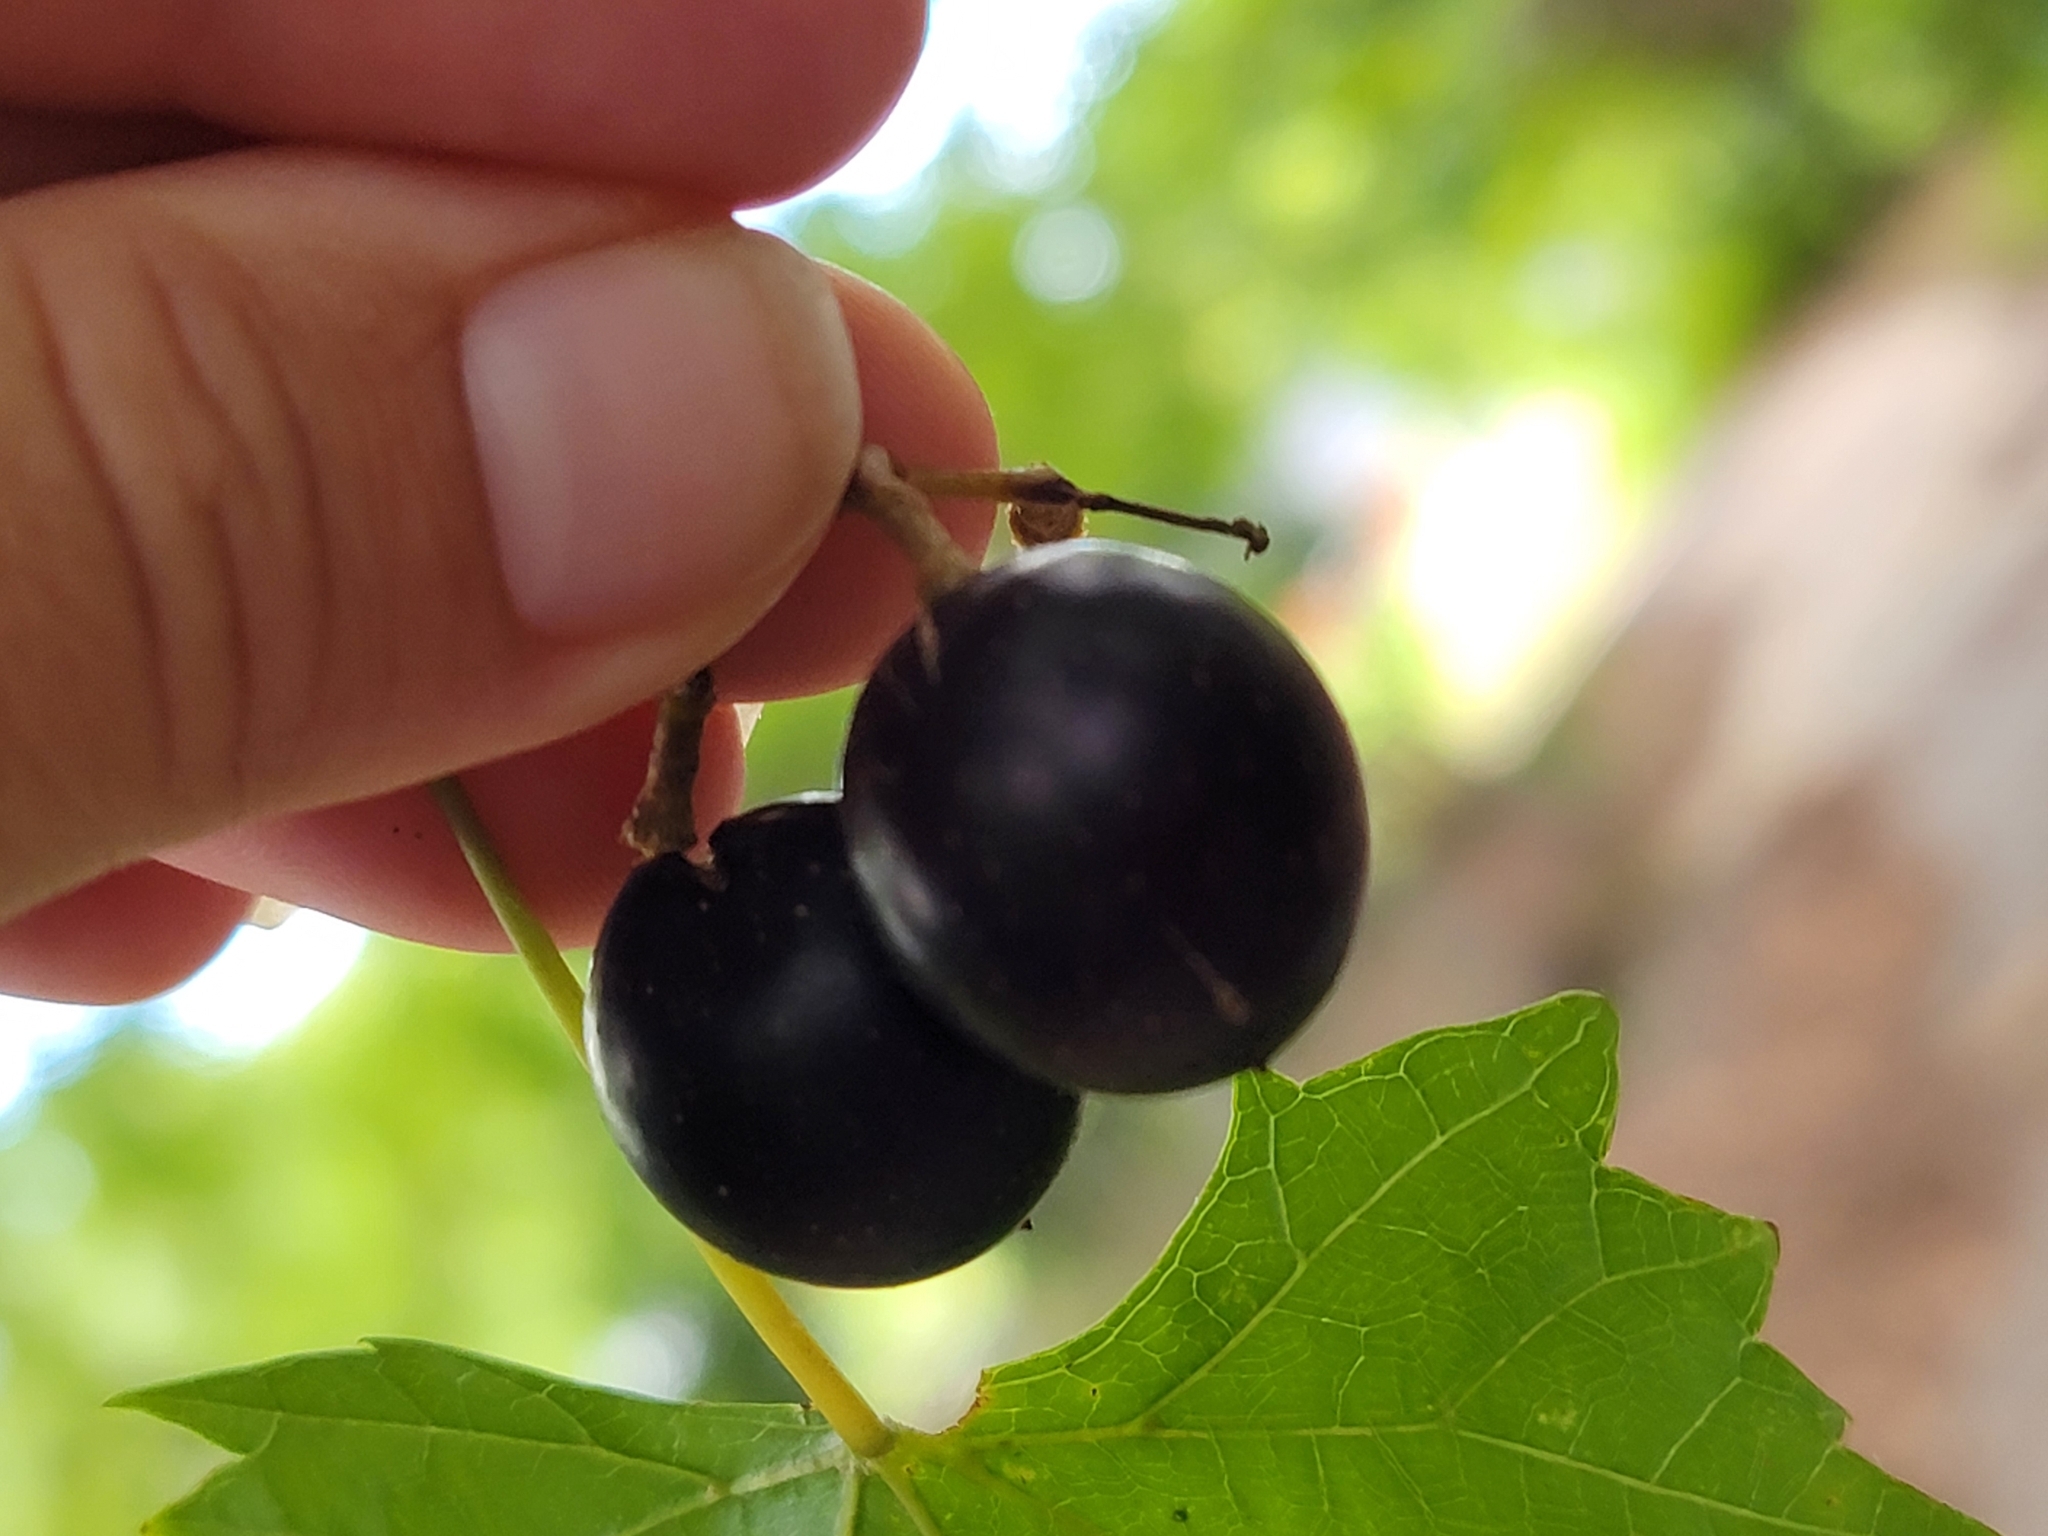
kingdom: Plantae
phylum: Tracheophyta
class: Magnoliopsida
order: Vitales
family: Vitaceae
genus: Vitis
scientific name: Vitis rotundifolia
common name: Muscadine grape
